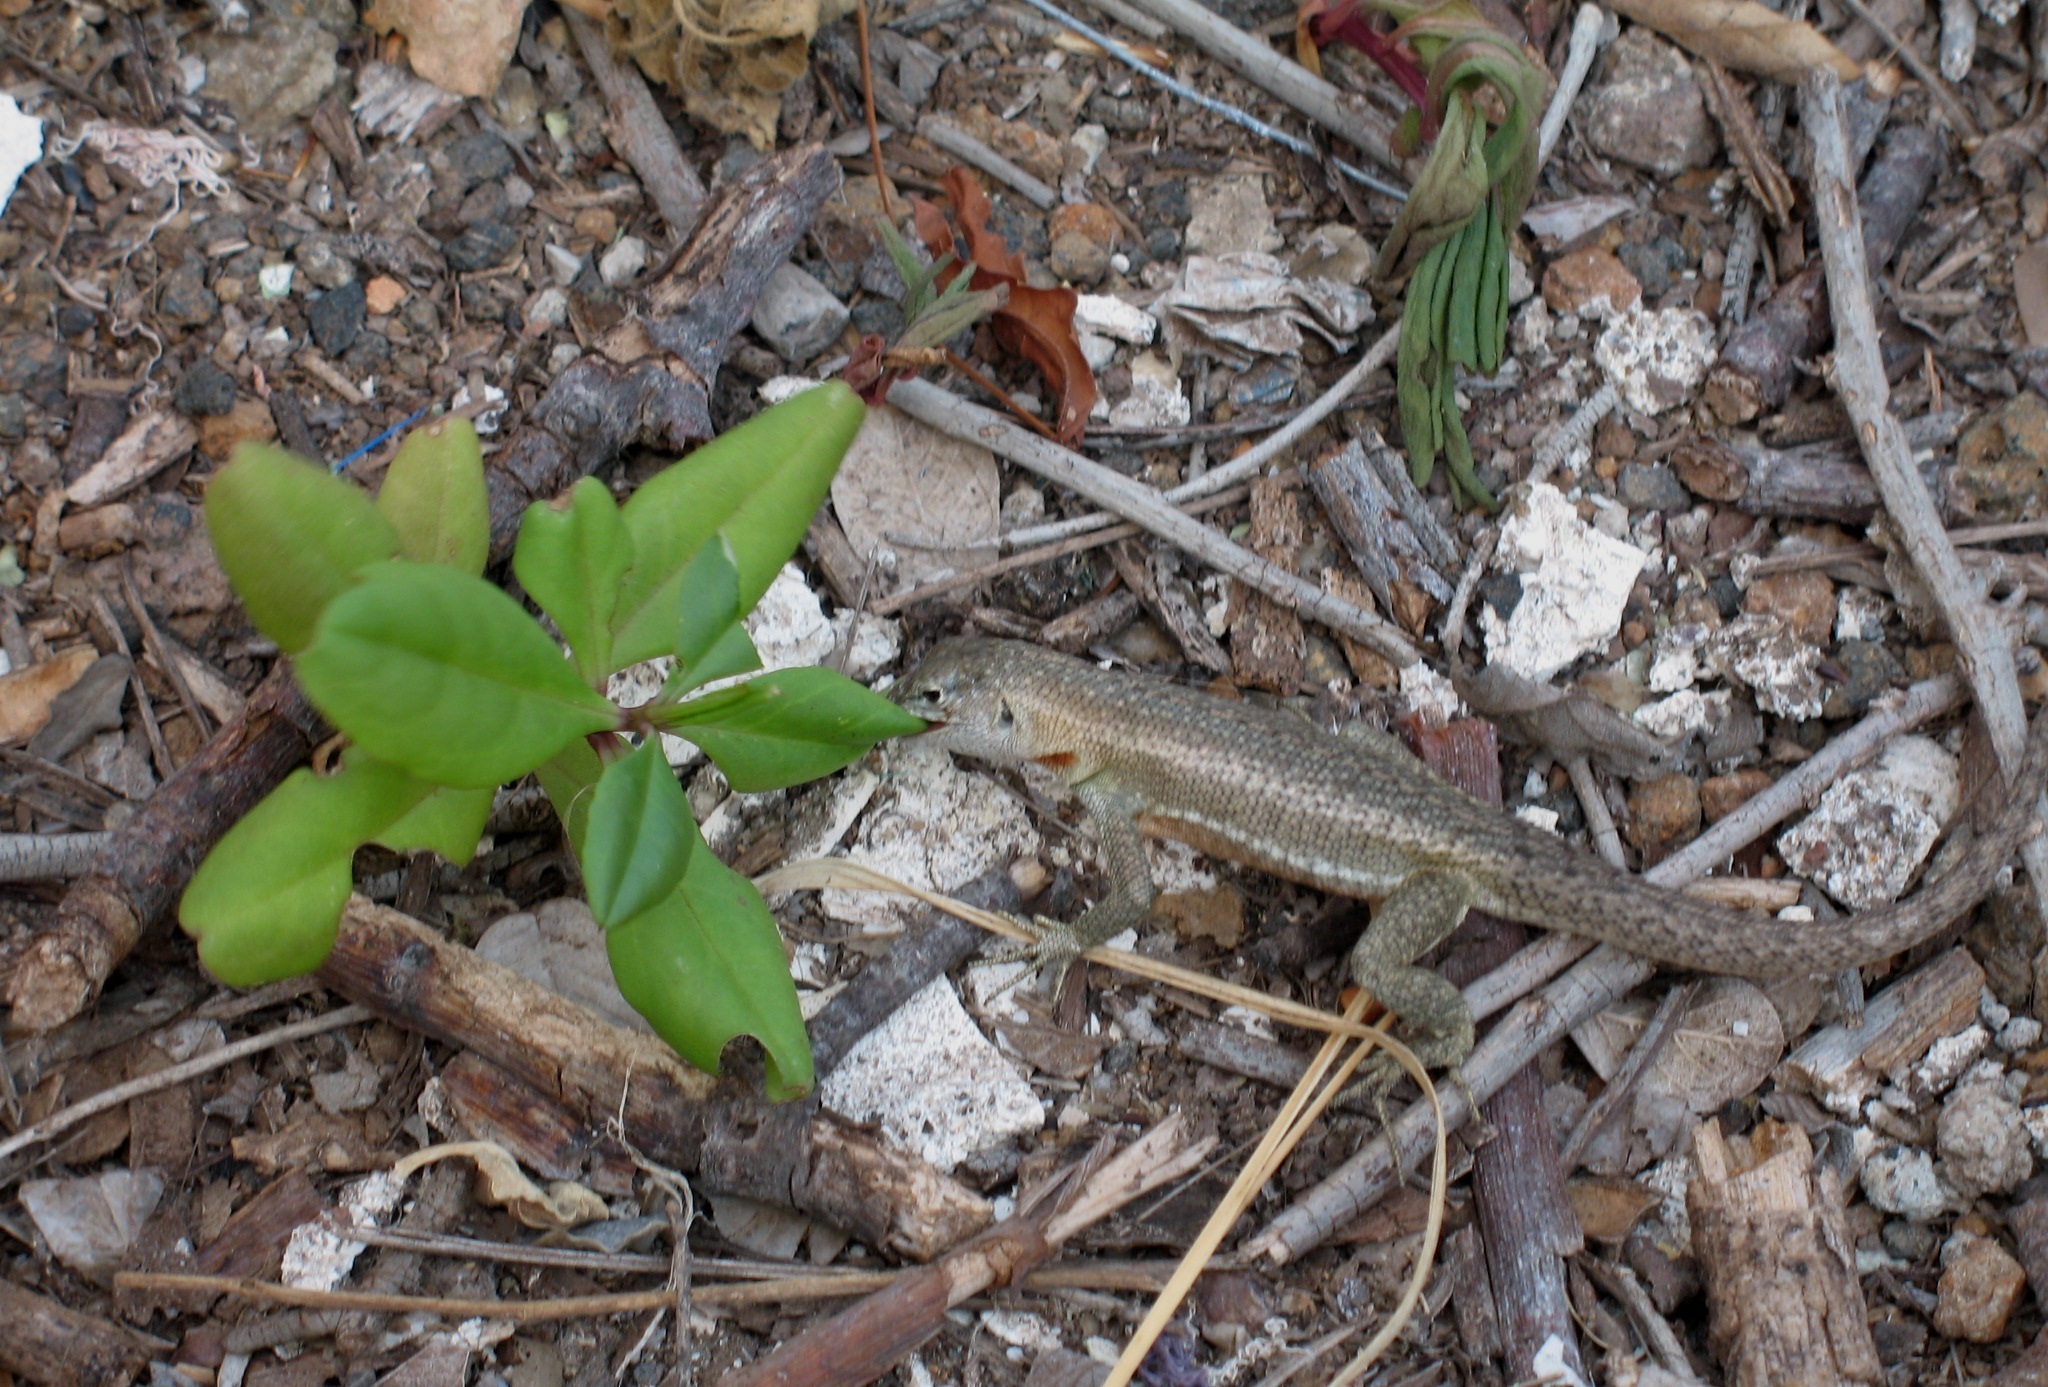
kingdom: Animalia
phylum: Chordata
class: Squamata
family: Tropiduridae
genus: Microlophus
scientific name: Microlophus indefatigabilis
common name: Galapagos lava lizard
